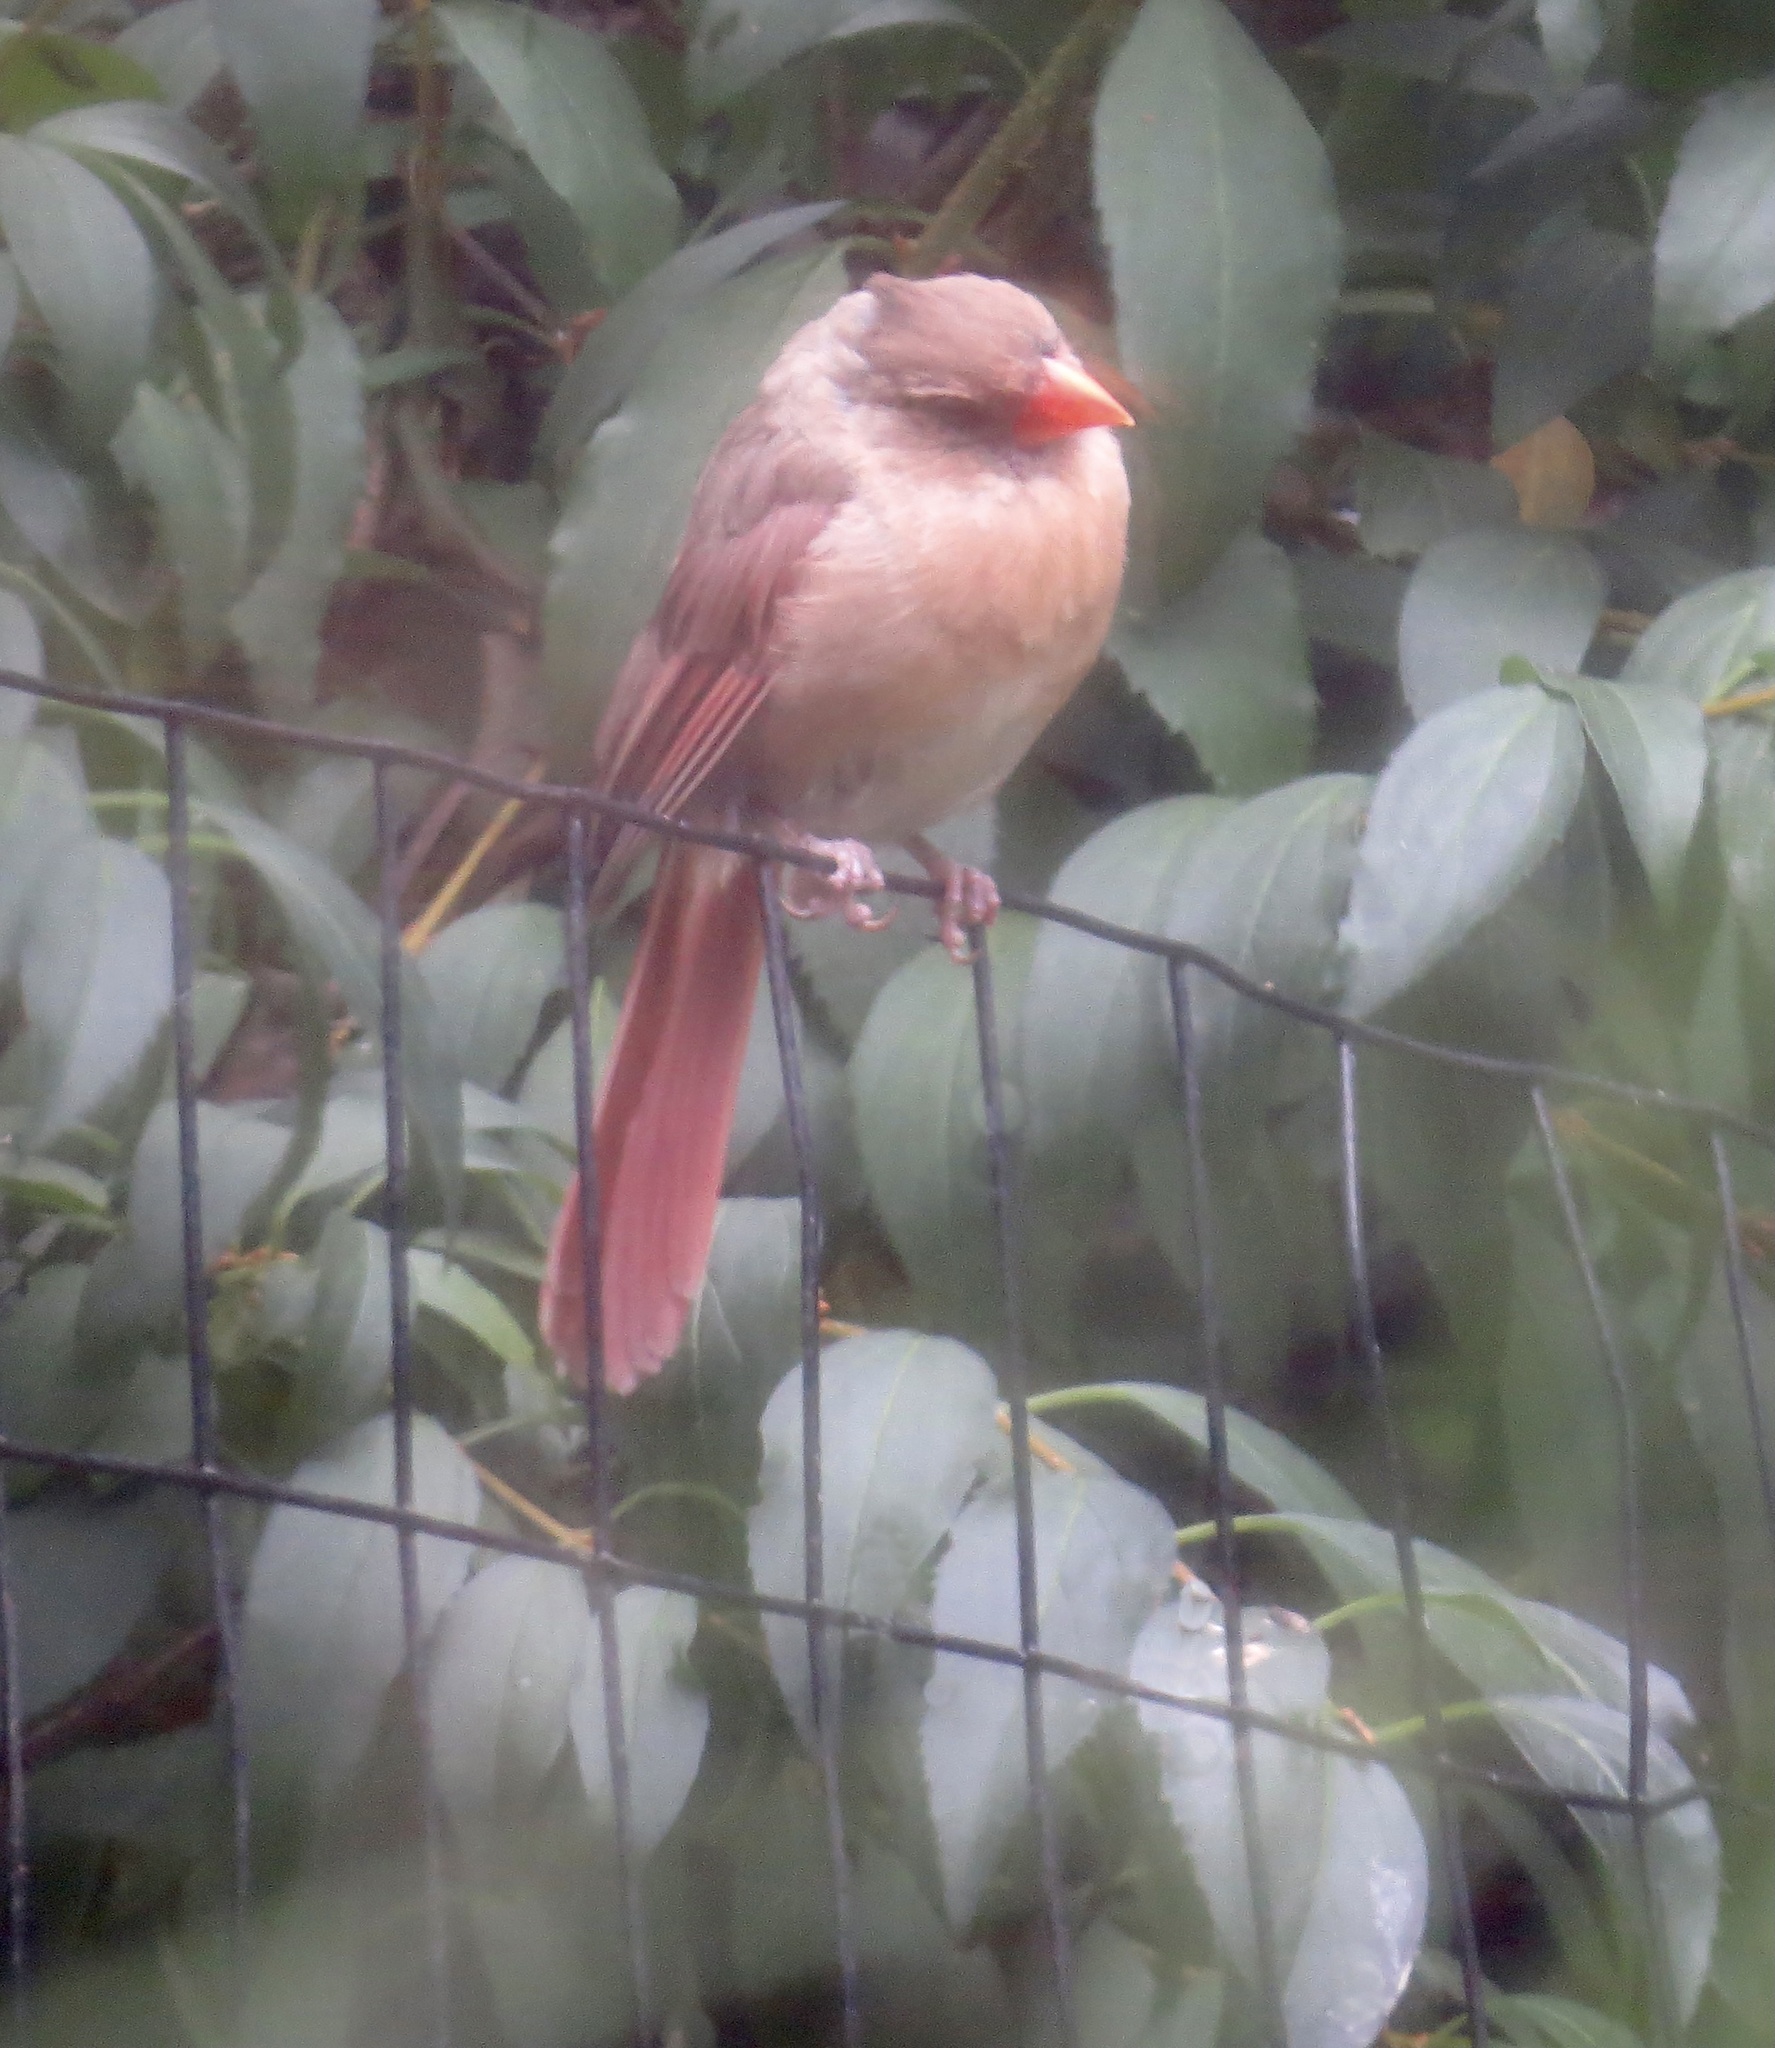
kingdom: Animalia
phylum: Chordata
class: Aves
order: Passeriformes
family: Cardinalidae
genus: Cardinalis
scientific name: Cardinalis cardinalis
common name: Northern cardinal
